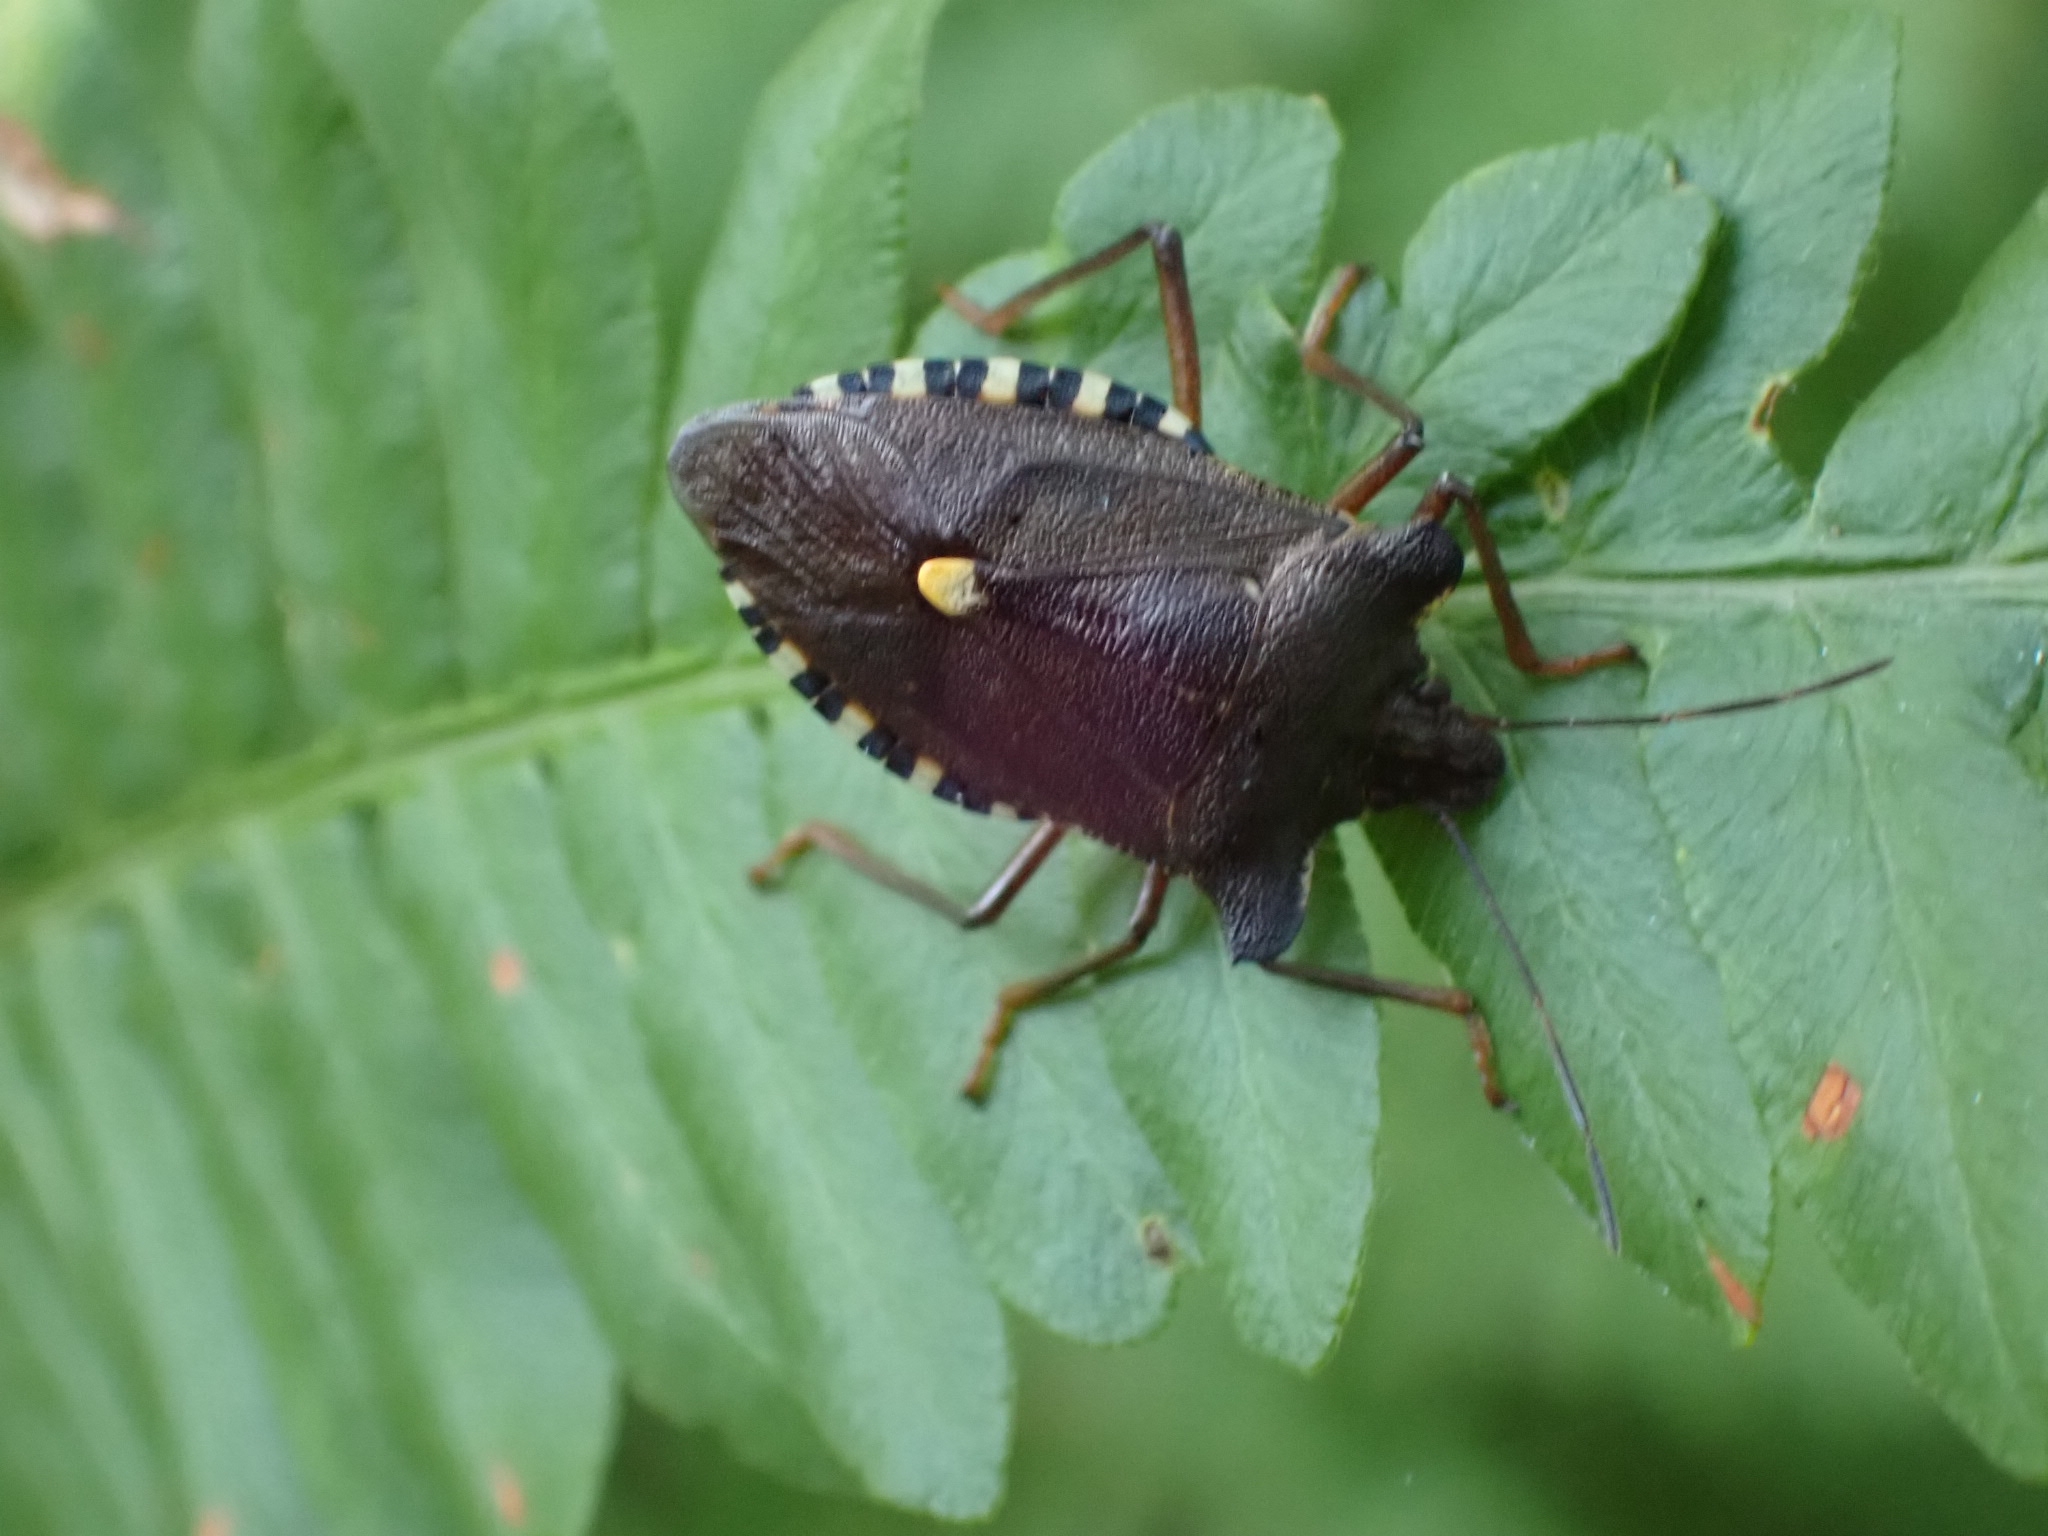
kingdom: Animalia
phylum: Arthropoda
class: Insecta
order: Hemiptera
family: Pentatomidae
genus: Pentatoma
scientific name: Pentatoma rufipes
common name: Forest bug
